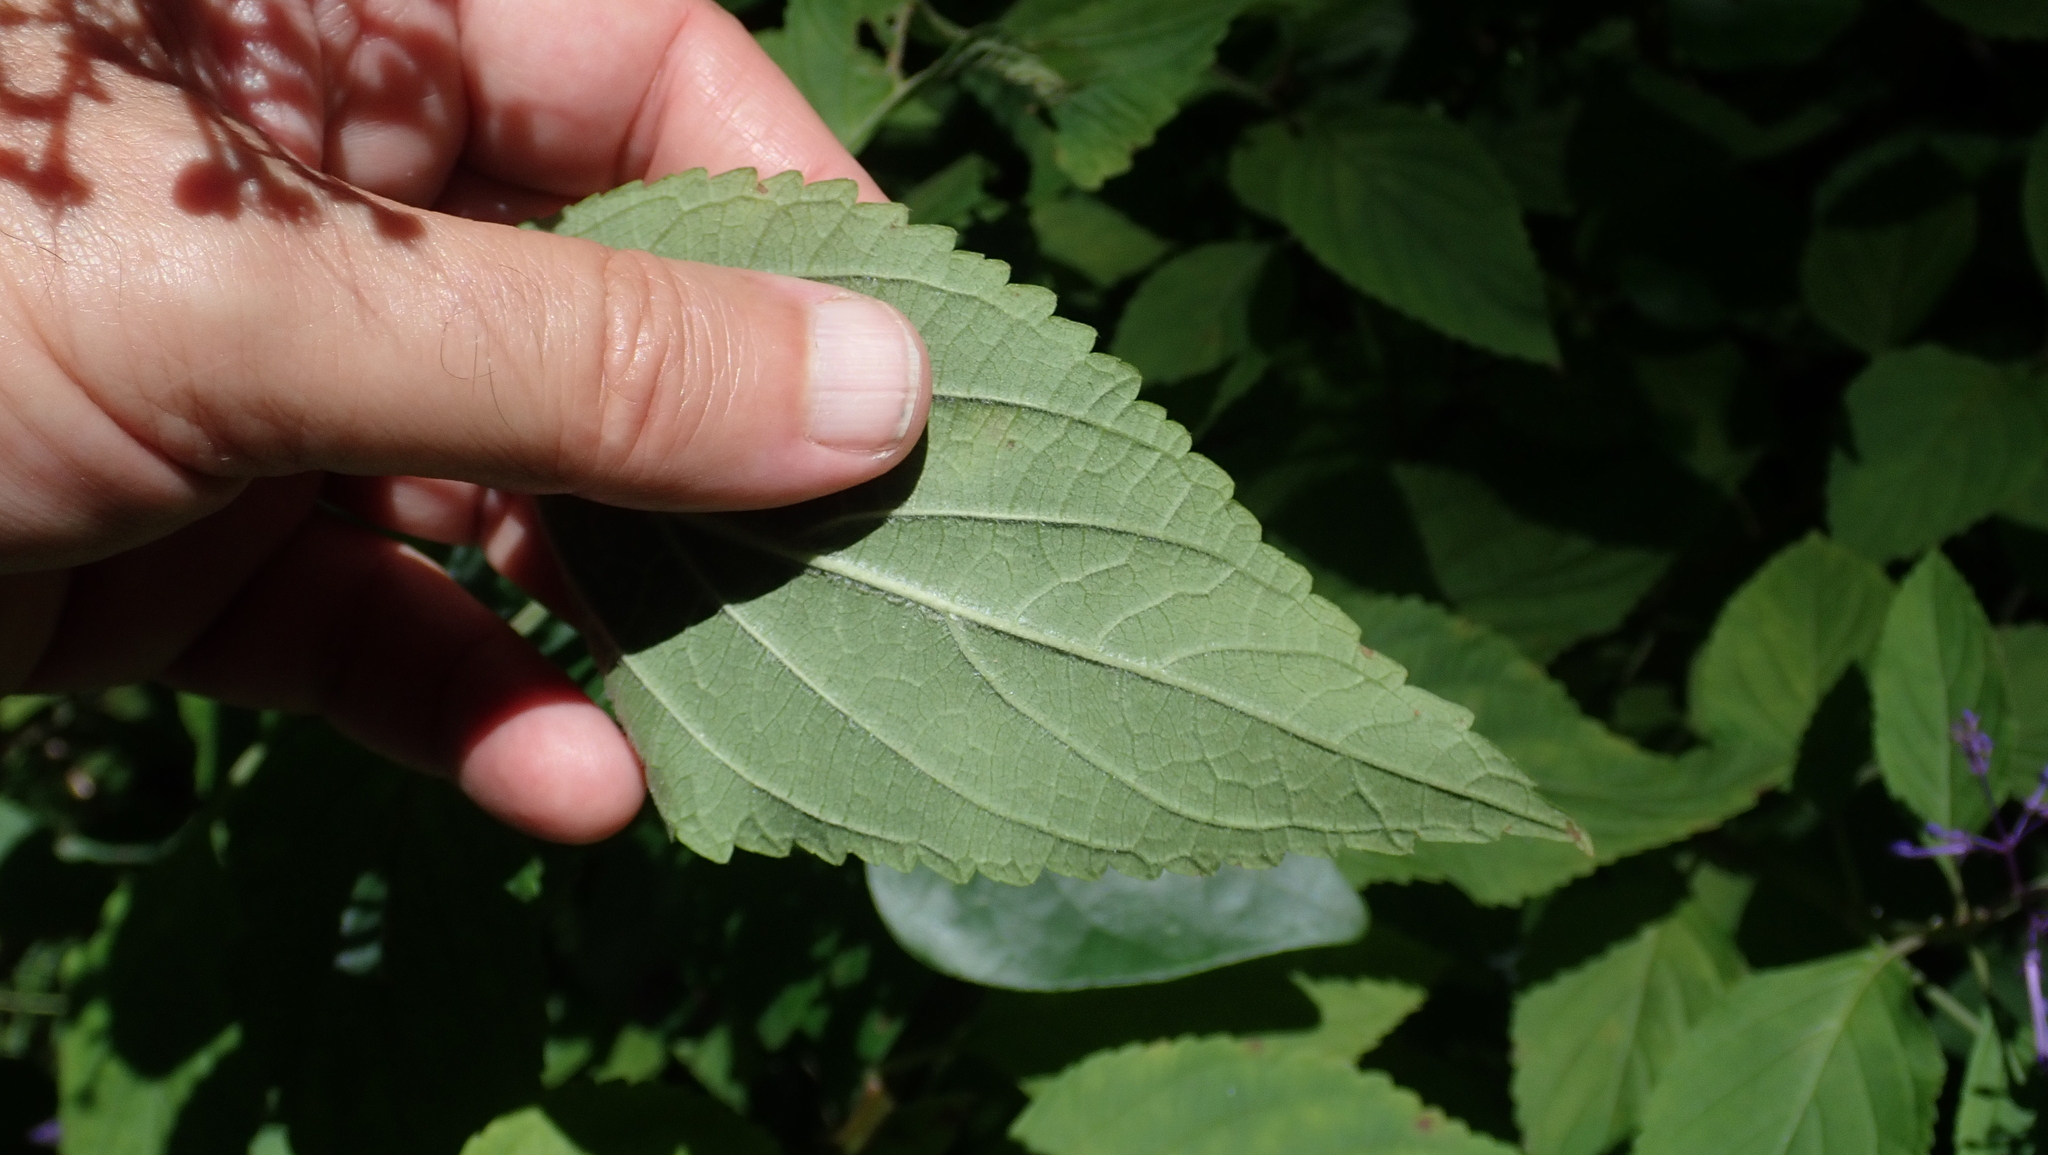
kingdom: Plantae
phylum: Tracheophyta
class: Magnoliopsida
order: Lamiales
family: Lamiaceae
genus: Plectranthus
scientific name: Plectranthus ecklonii
